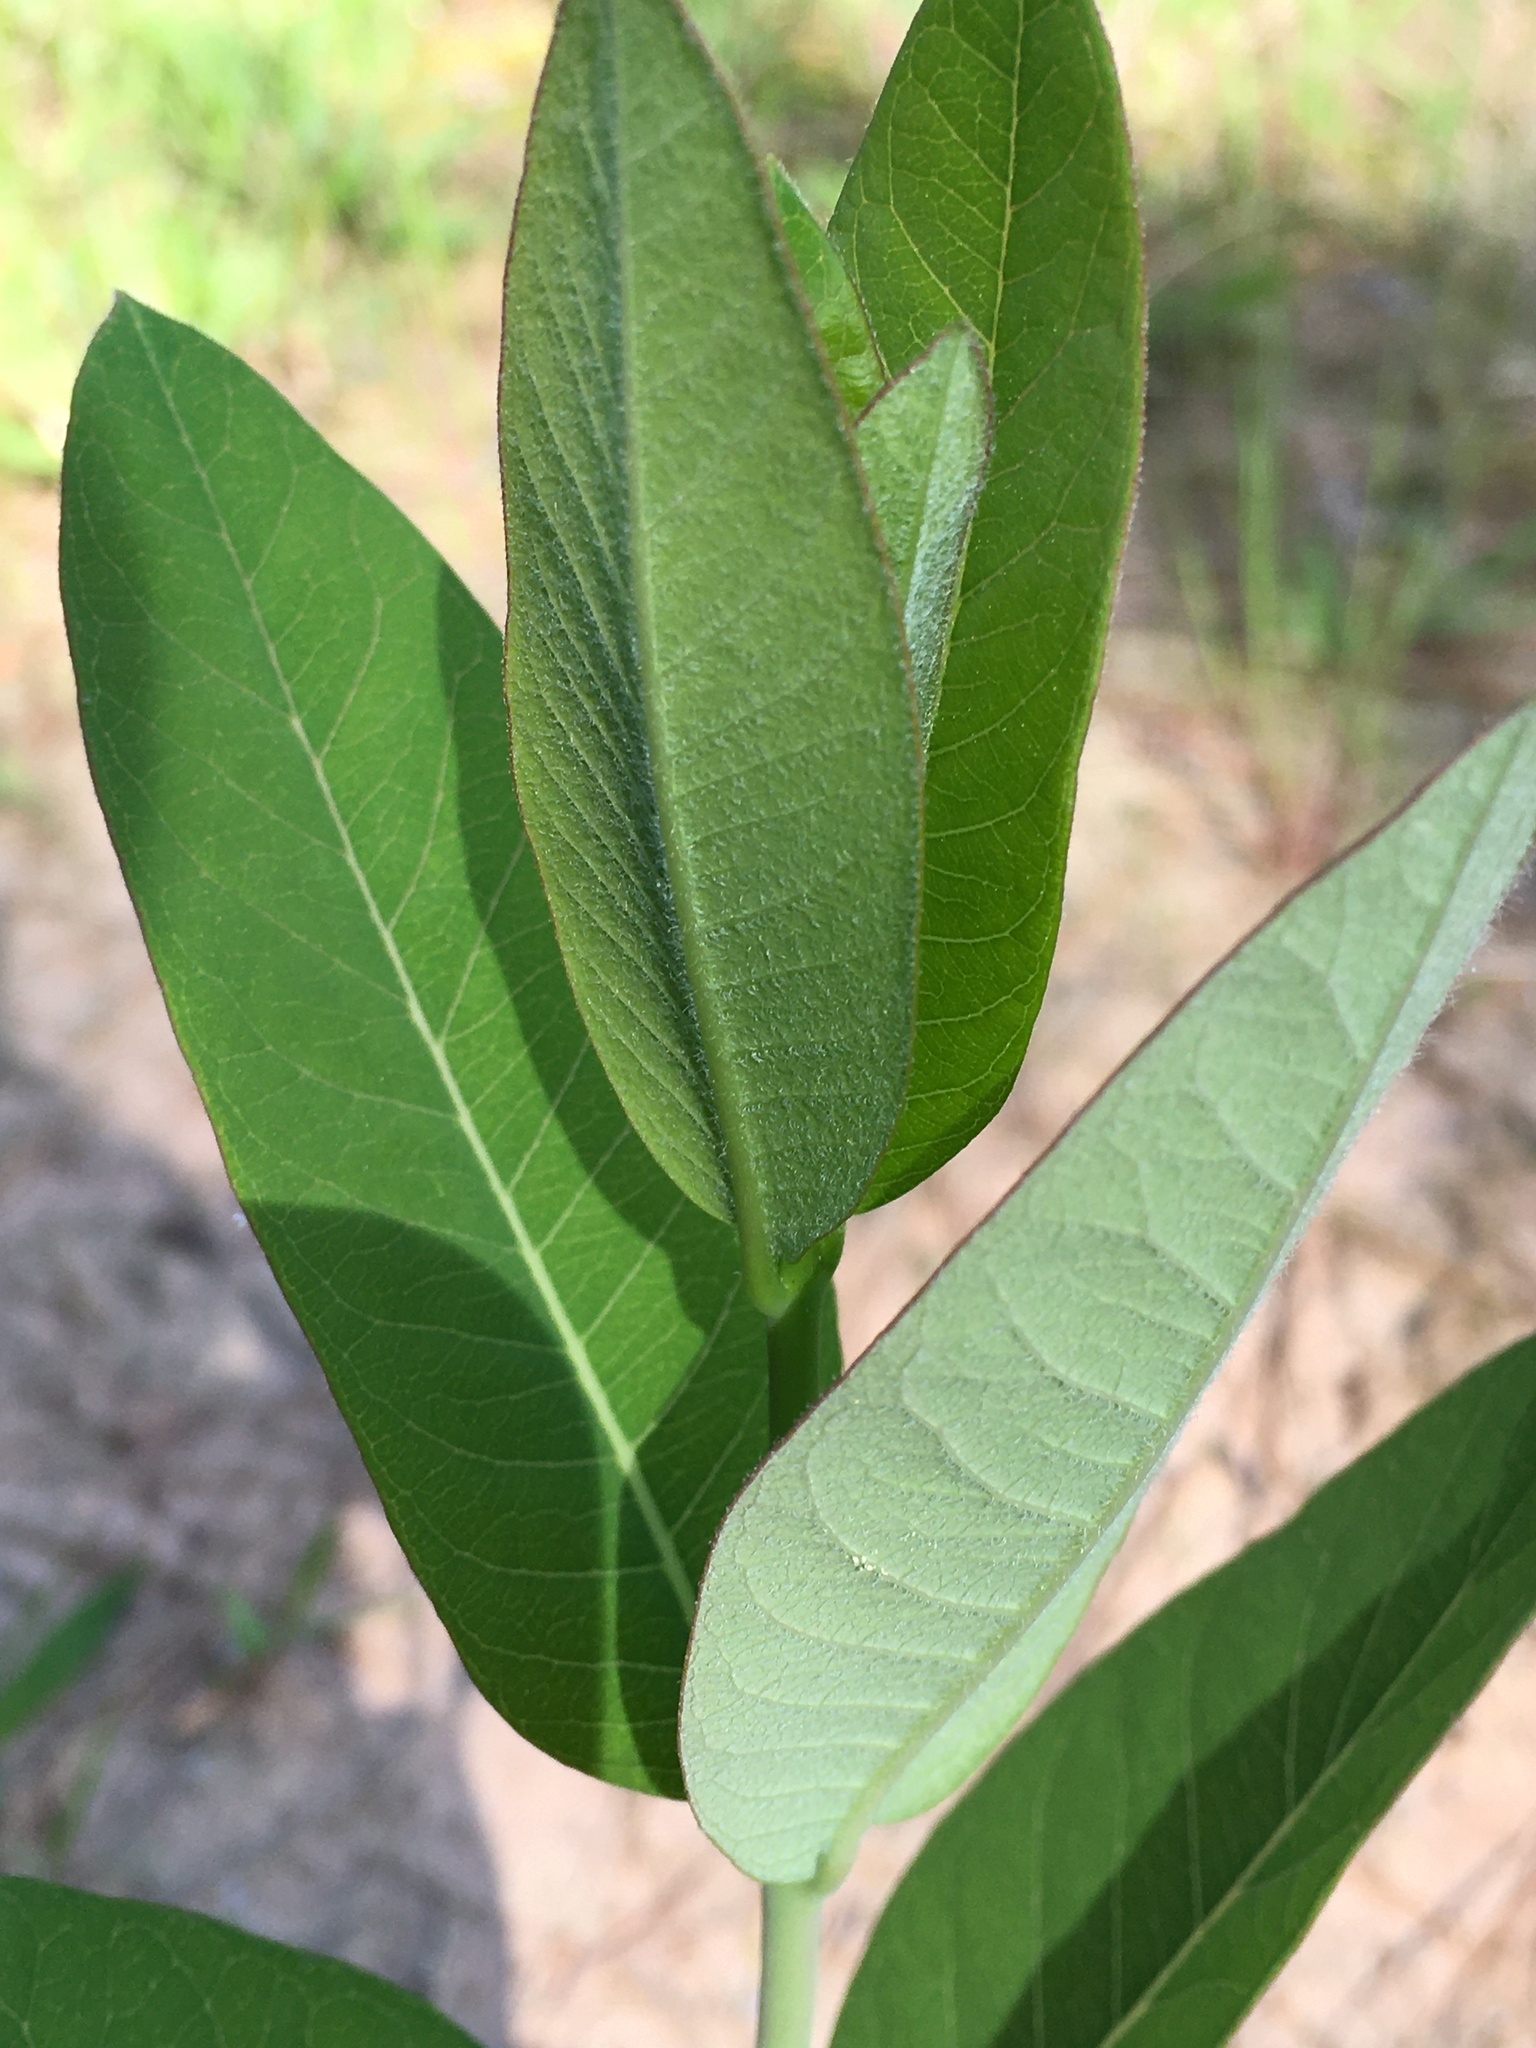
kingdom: Plantae
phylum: Tracheophyta
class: Magnoliopsida
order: Gentianales
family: Apocynaceae
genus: Apocynum
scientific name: Apocynum cannabinum
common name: Hemp dogbane
